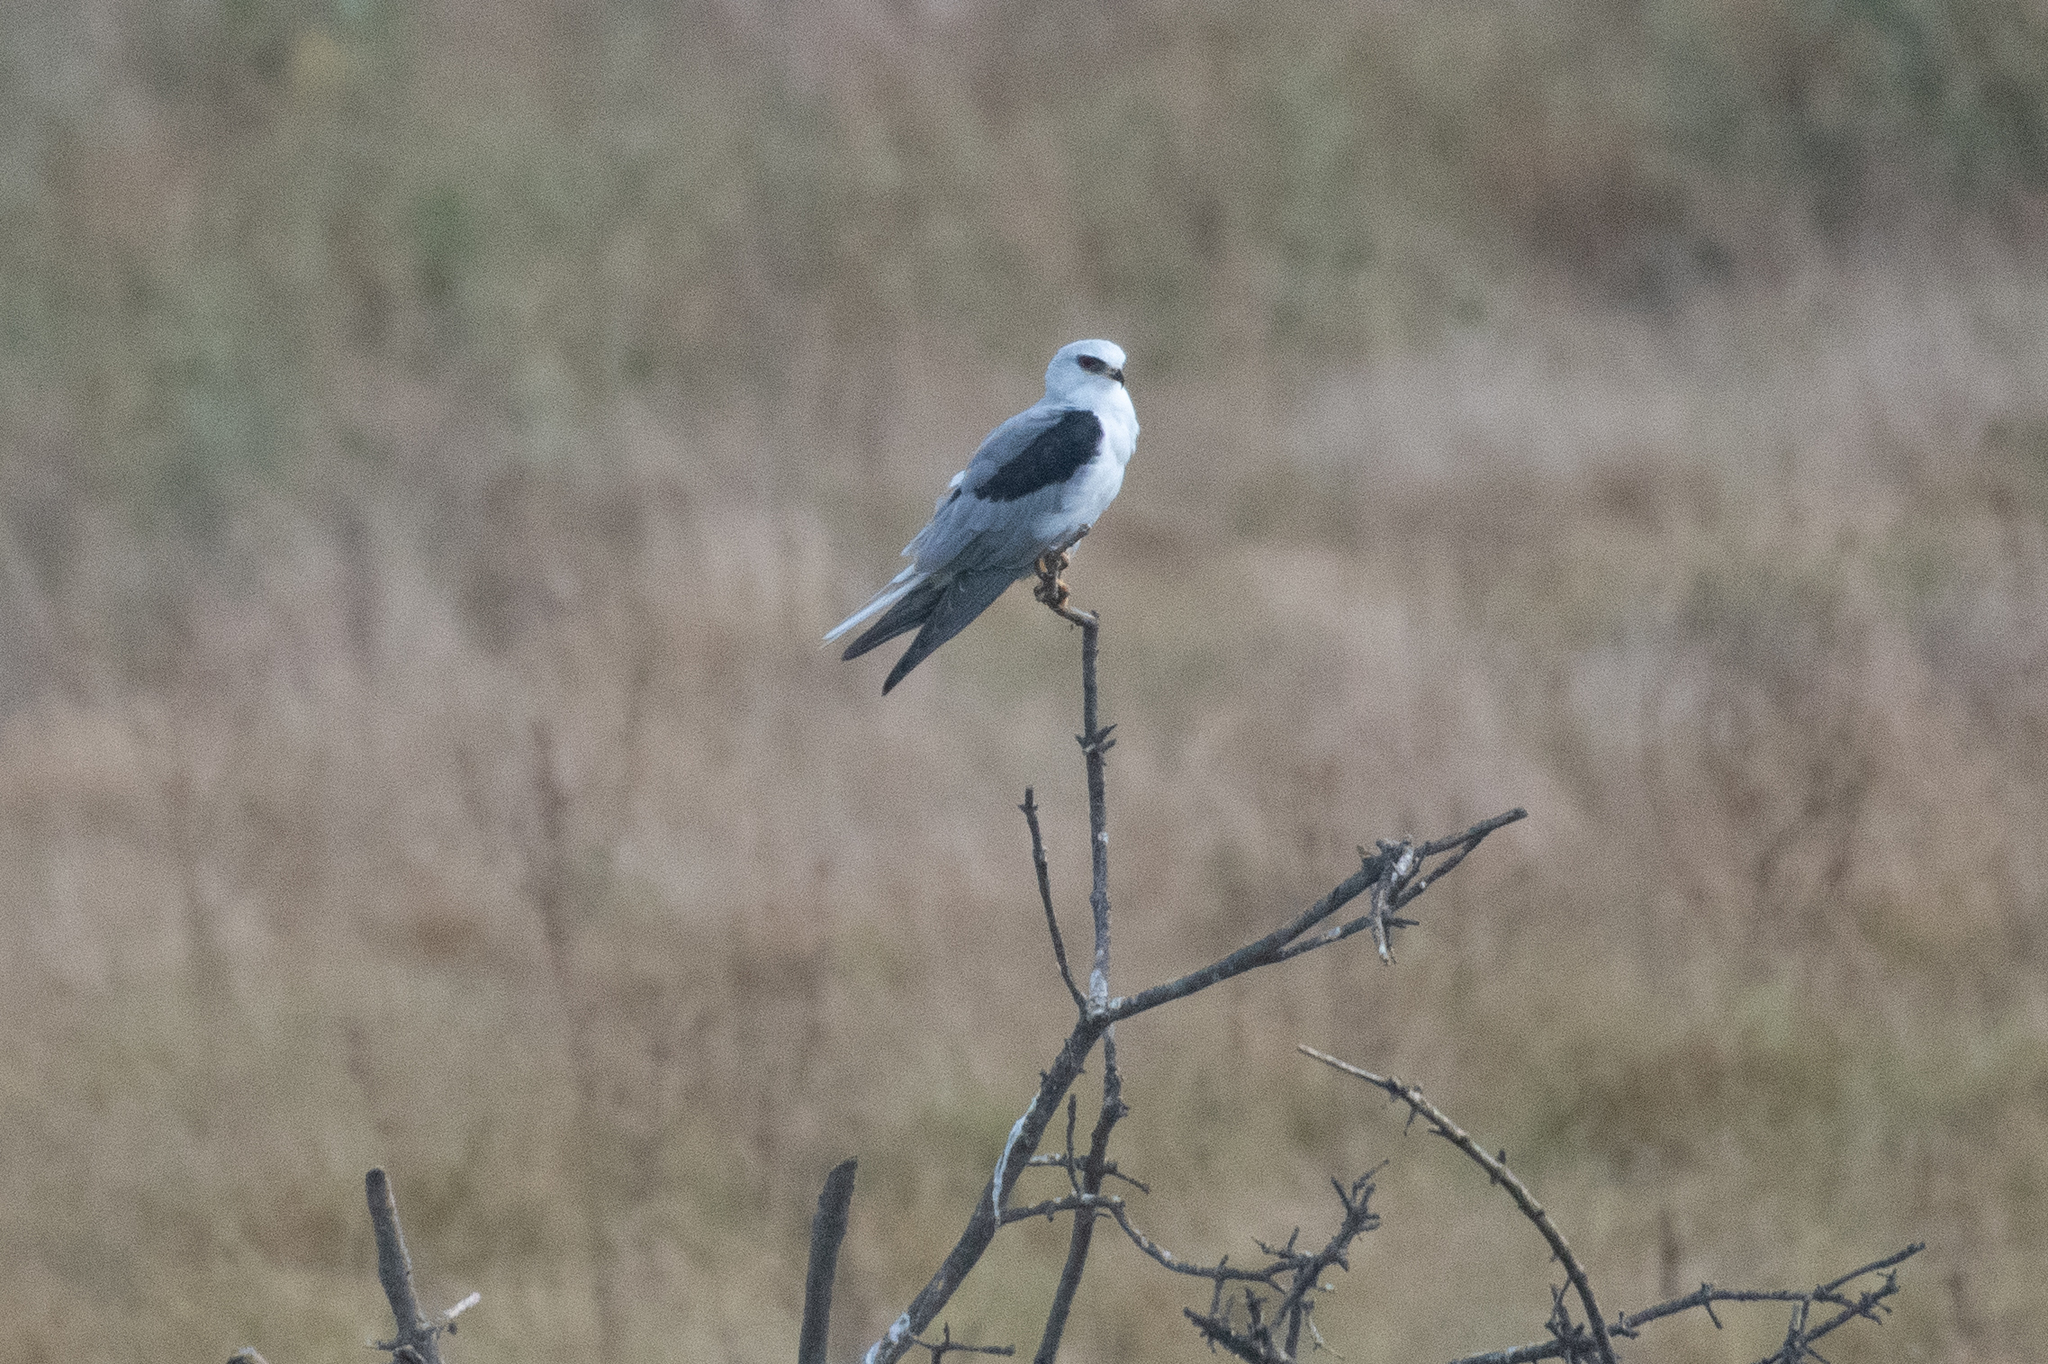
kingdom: Animalia
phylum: Chordata
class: Aves
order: Accipitriformes
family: Accipitridae
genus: Elanus
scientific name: Elanus leucurus
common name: White-tailed kite
